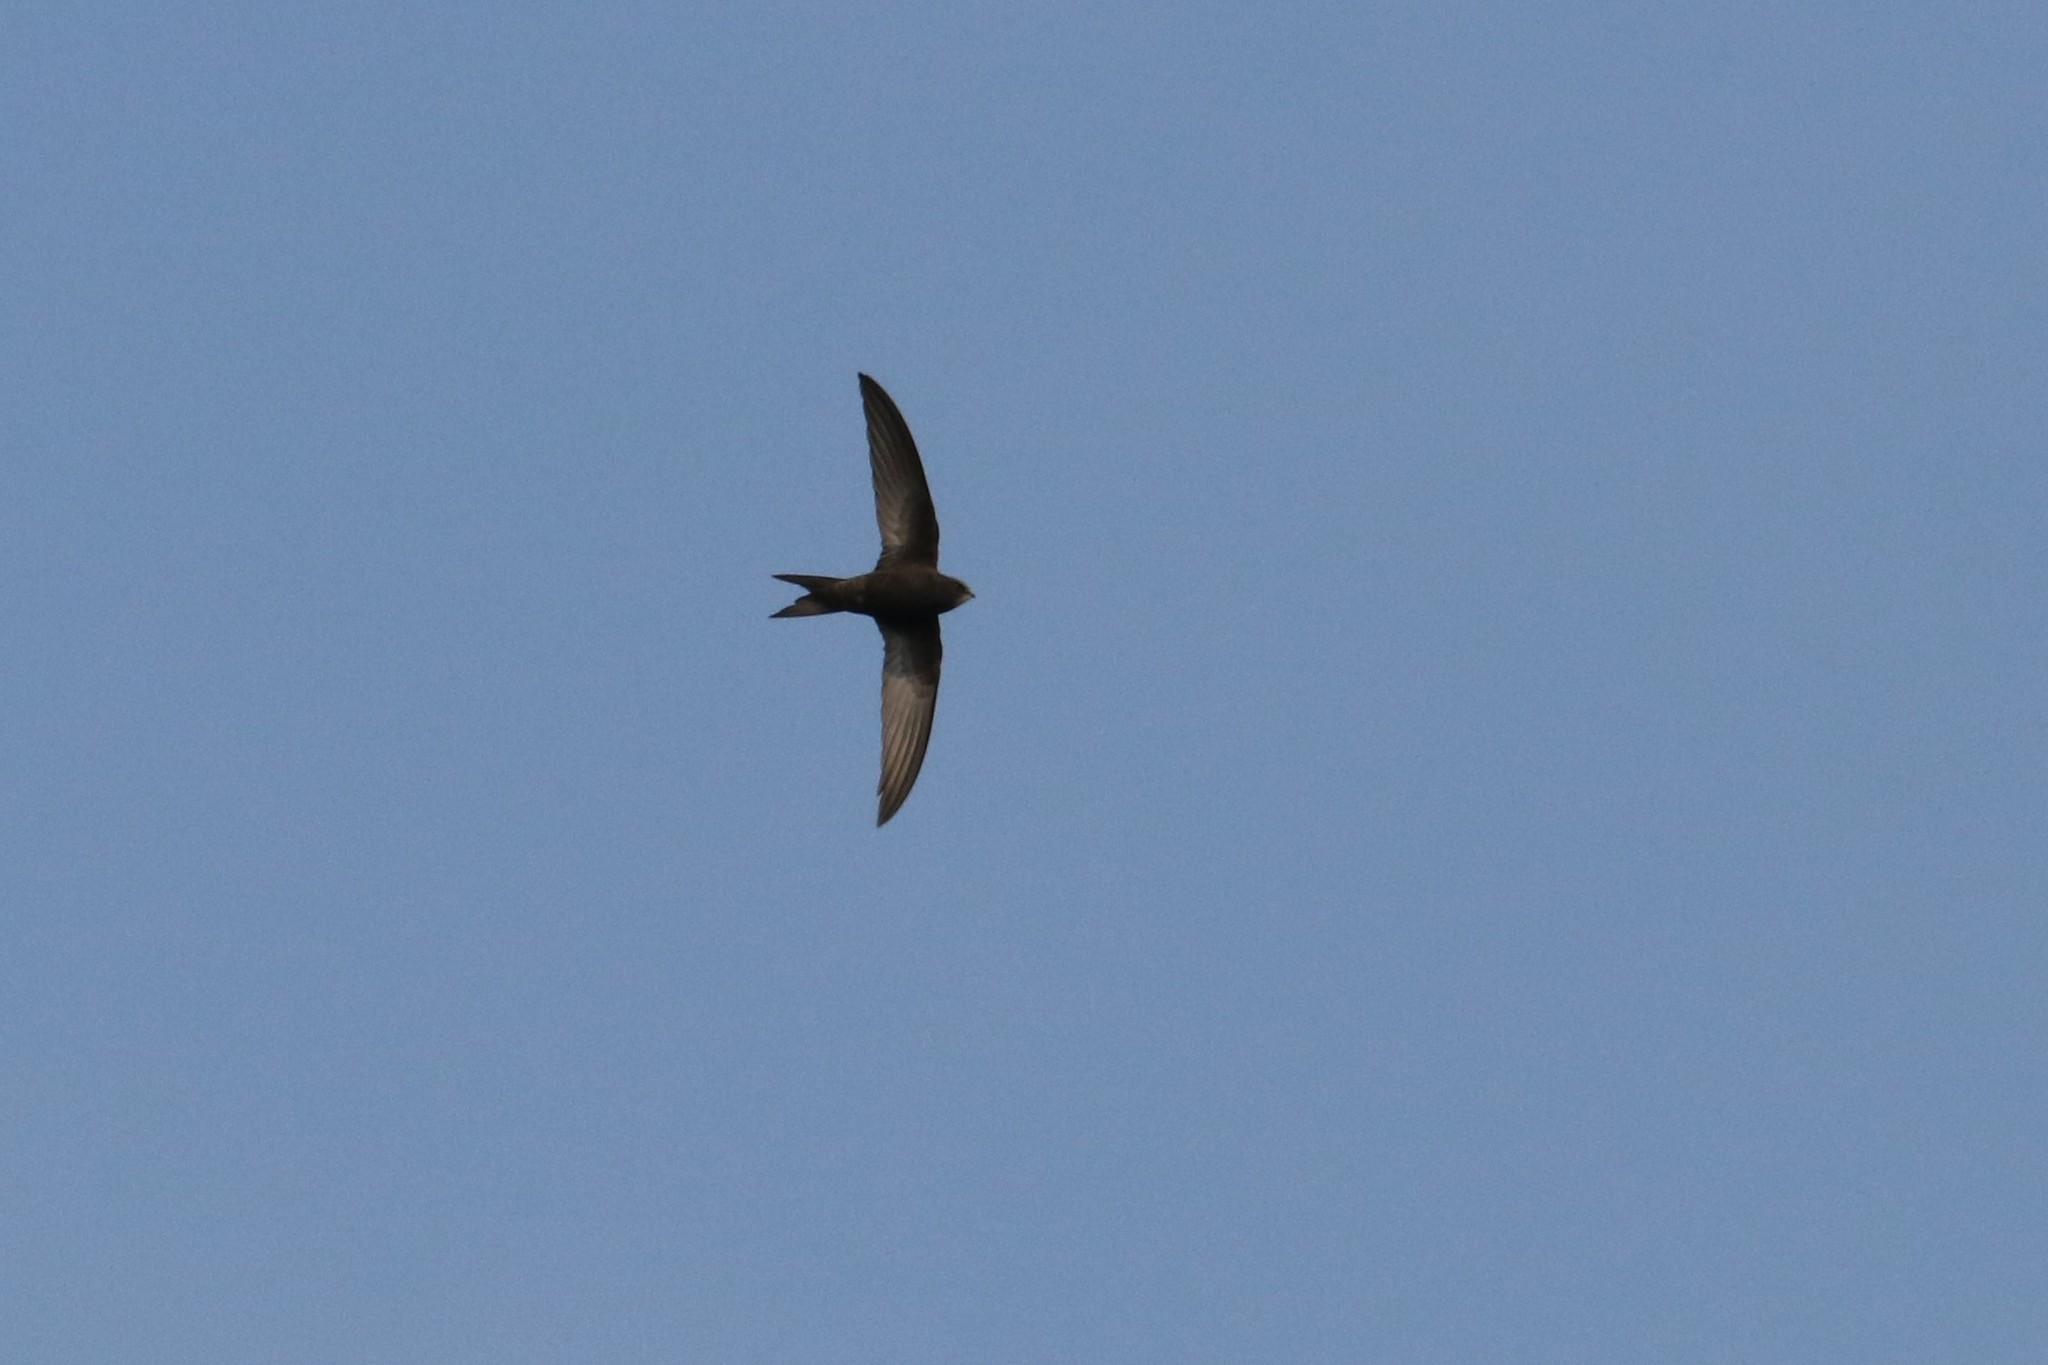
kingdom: Animalia
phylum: Chordata
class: Aves
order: Apodiformes
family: Apodidae
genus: Apus
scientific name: Apus apus
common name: Common swift
